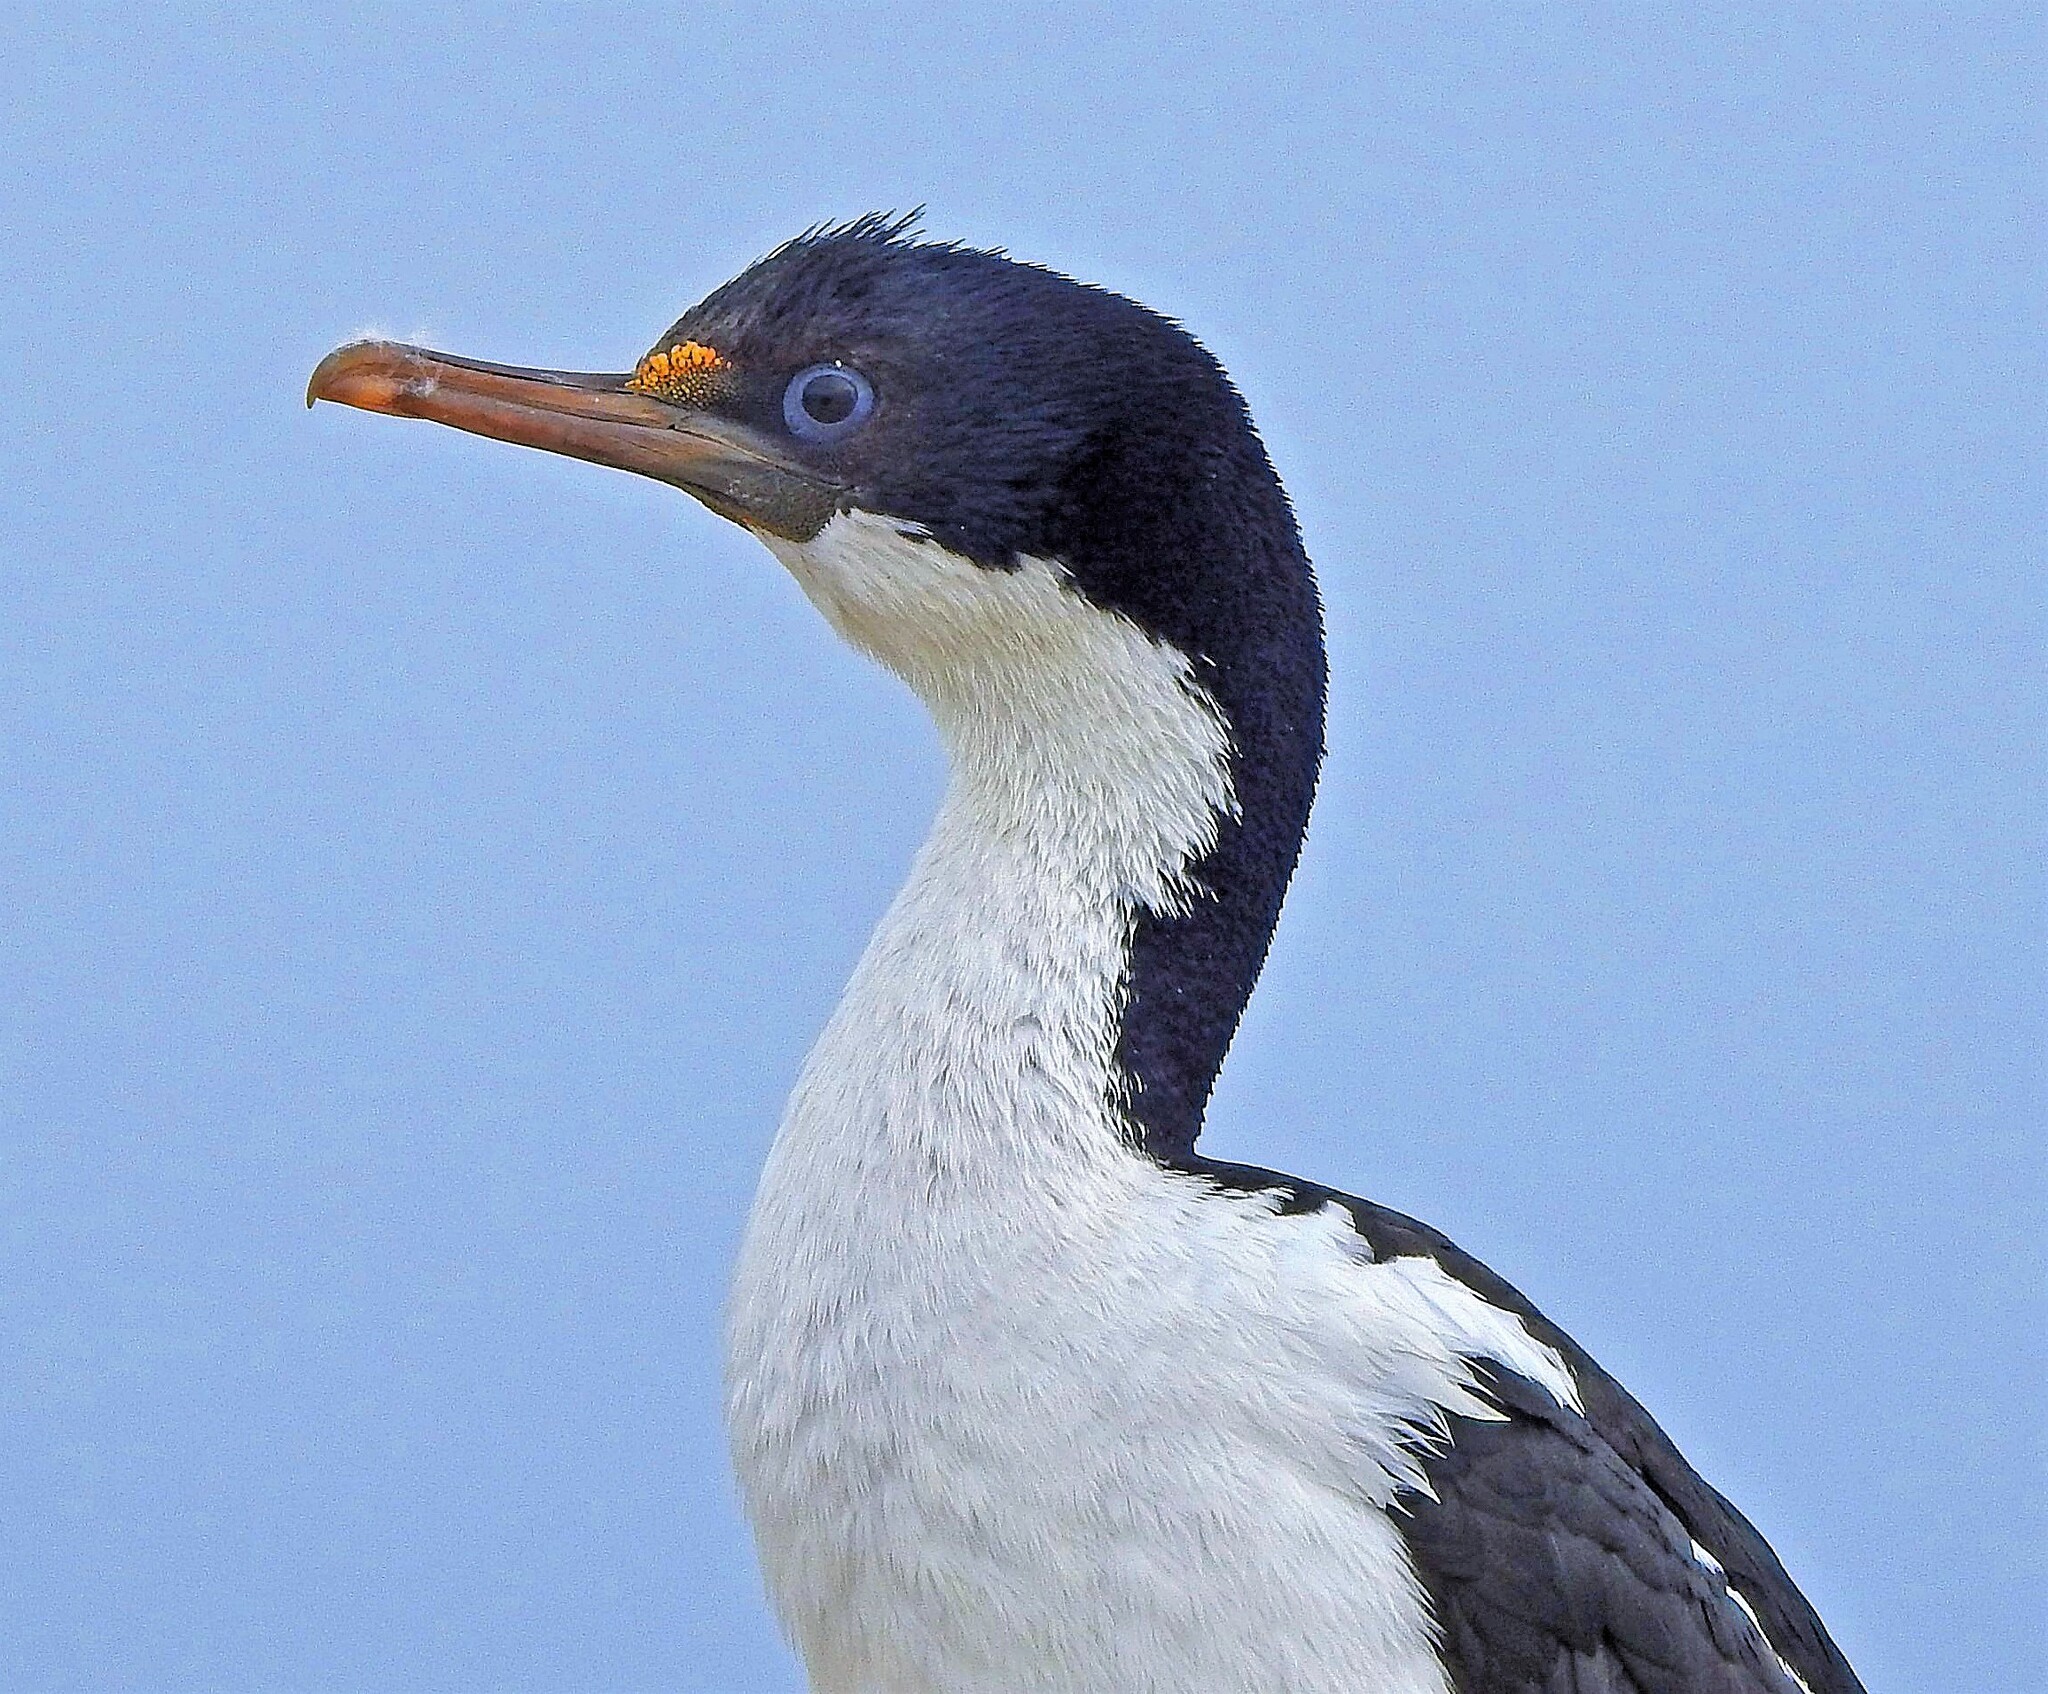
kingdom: Animalia
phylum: Chordata
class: Aves
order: Suliformes
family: Phalacrocoracidae
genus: Leucocarbo
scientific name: Leucocarbo atriceps
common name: Imperial shag
